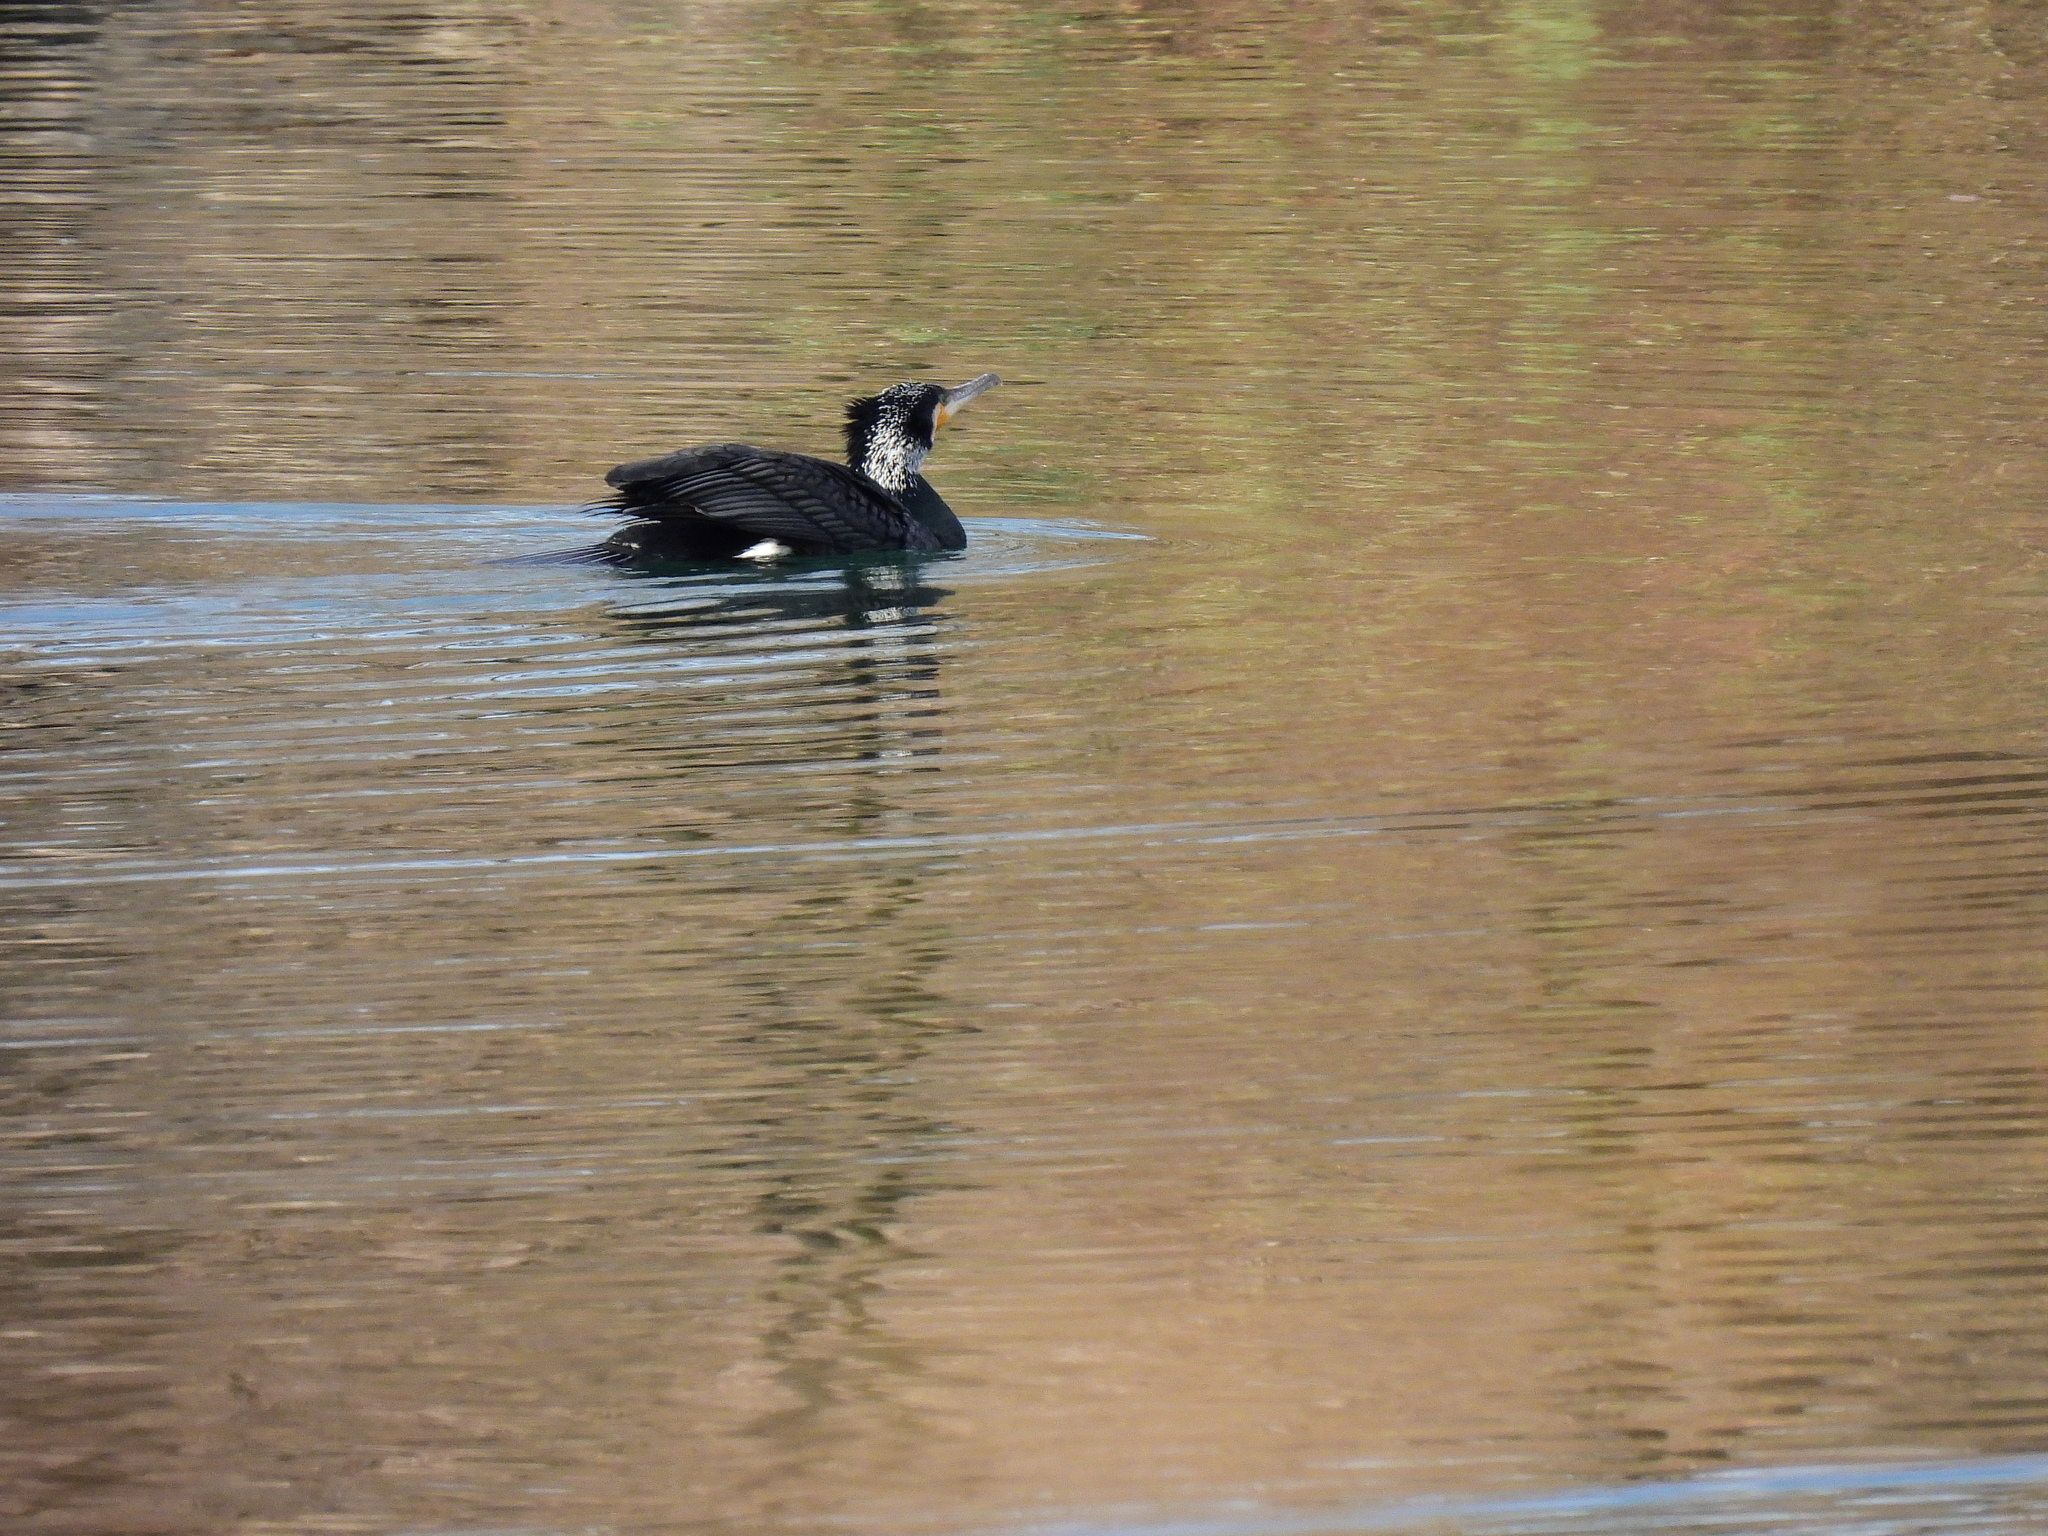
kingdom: Animalia
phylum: Chordata
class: Aves
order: Suliformes
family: Phalacrocoracidae
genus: Phalacrocorax
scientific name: Phalacrocorax carbo
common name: Great cormorant
